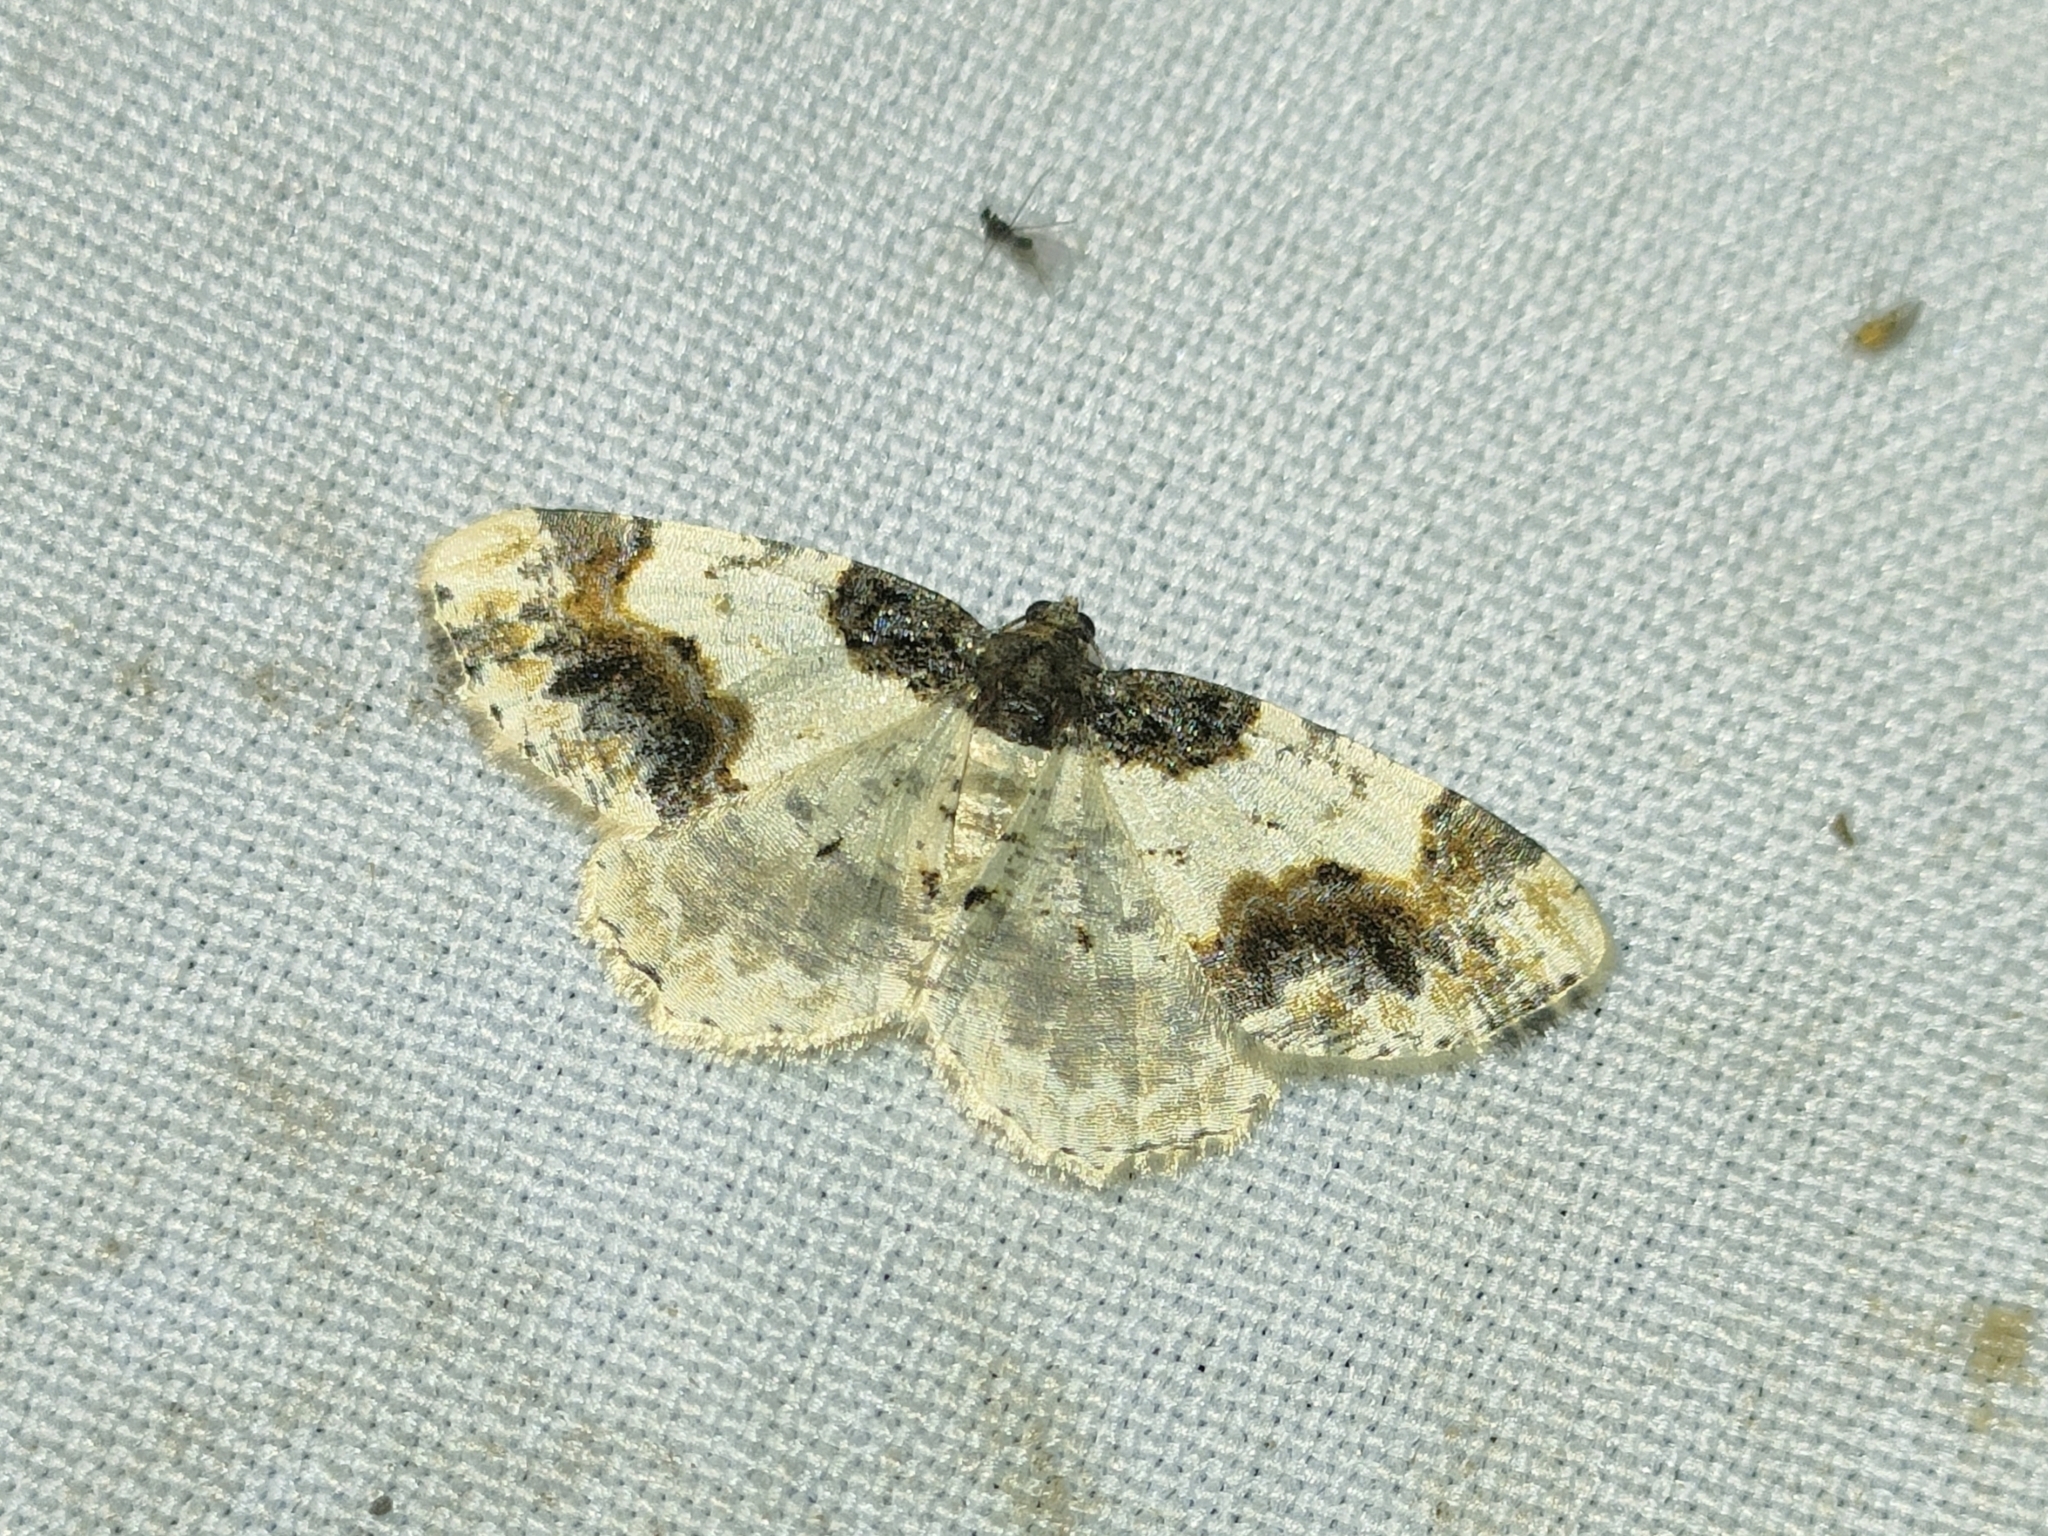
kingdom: Animalia
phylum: Arthropoda
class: Insecta
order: Lepidoptera
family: Geometridae
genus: Ligdia
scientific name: Ligdia adustata
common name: Scorched carpet
